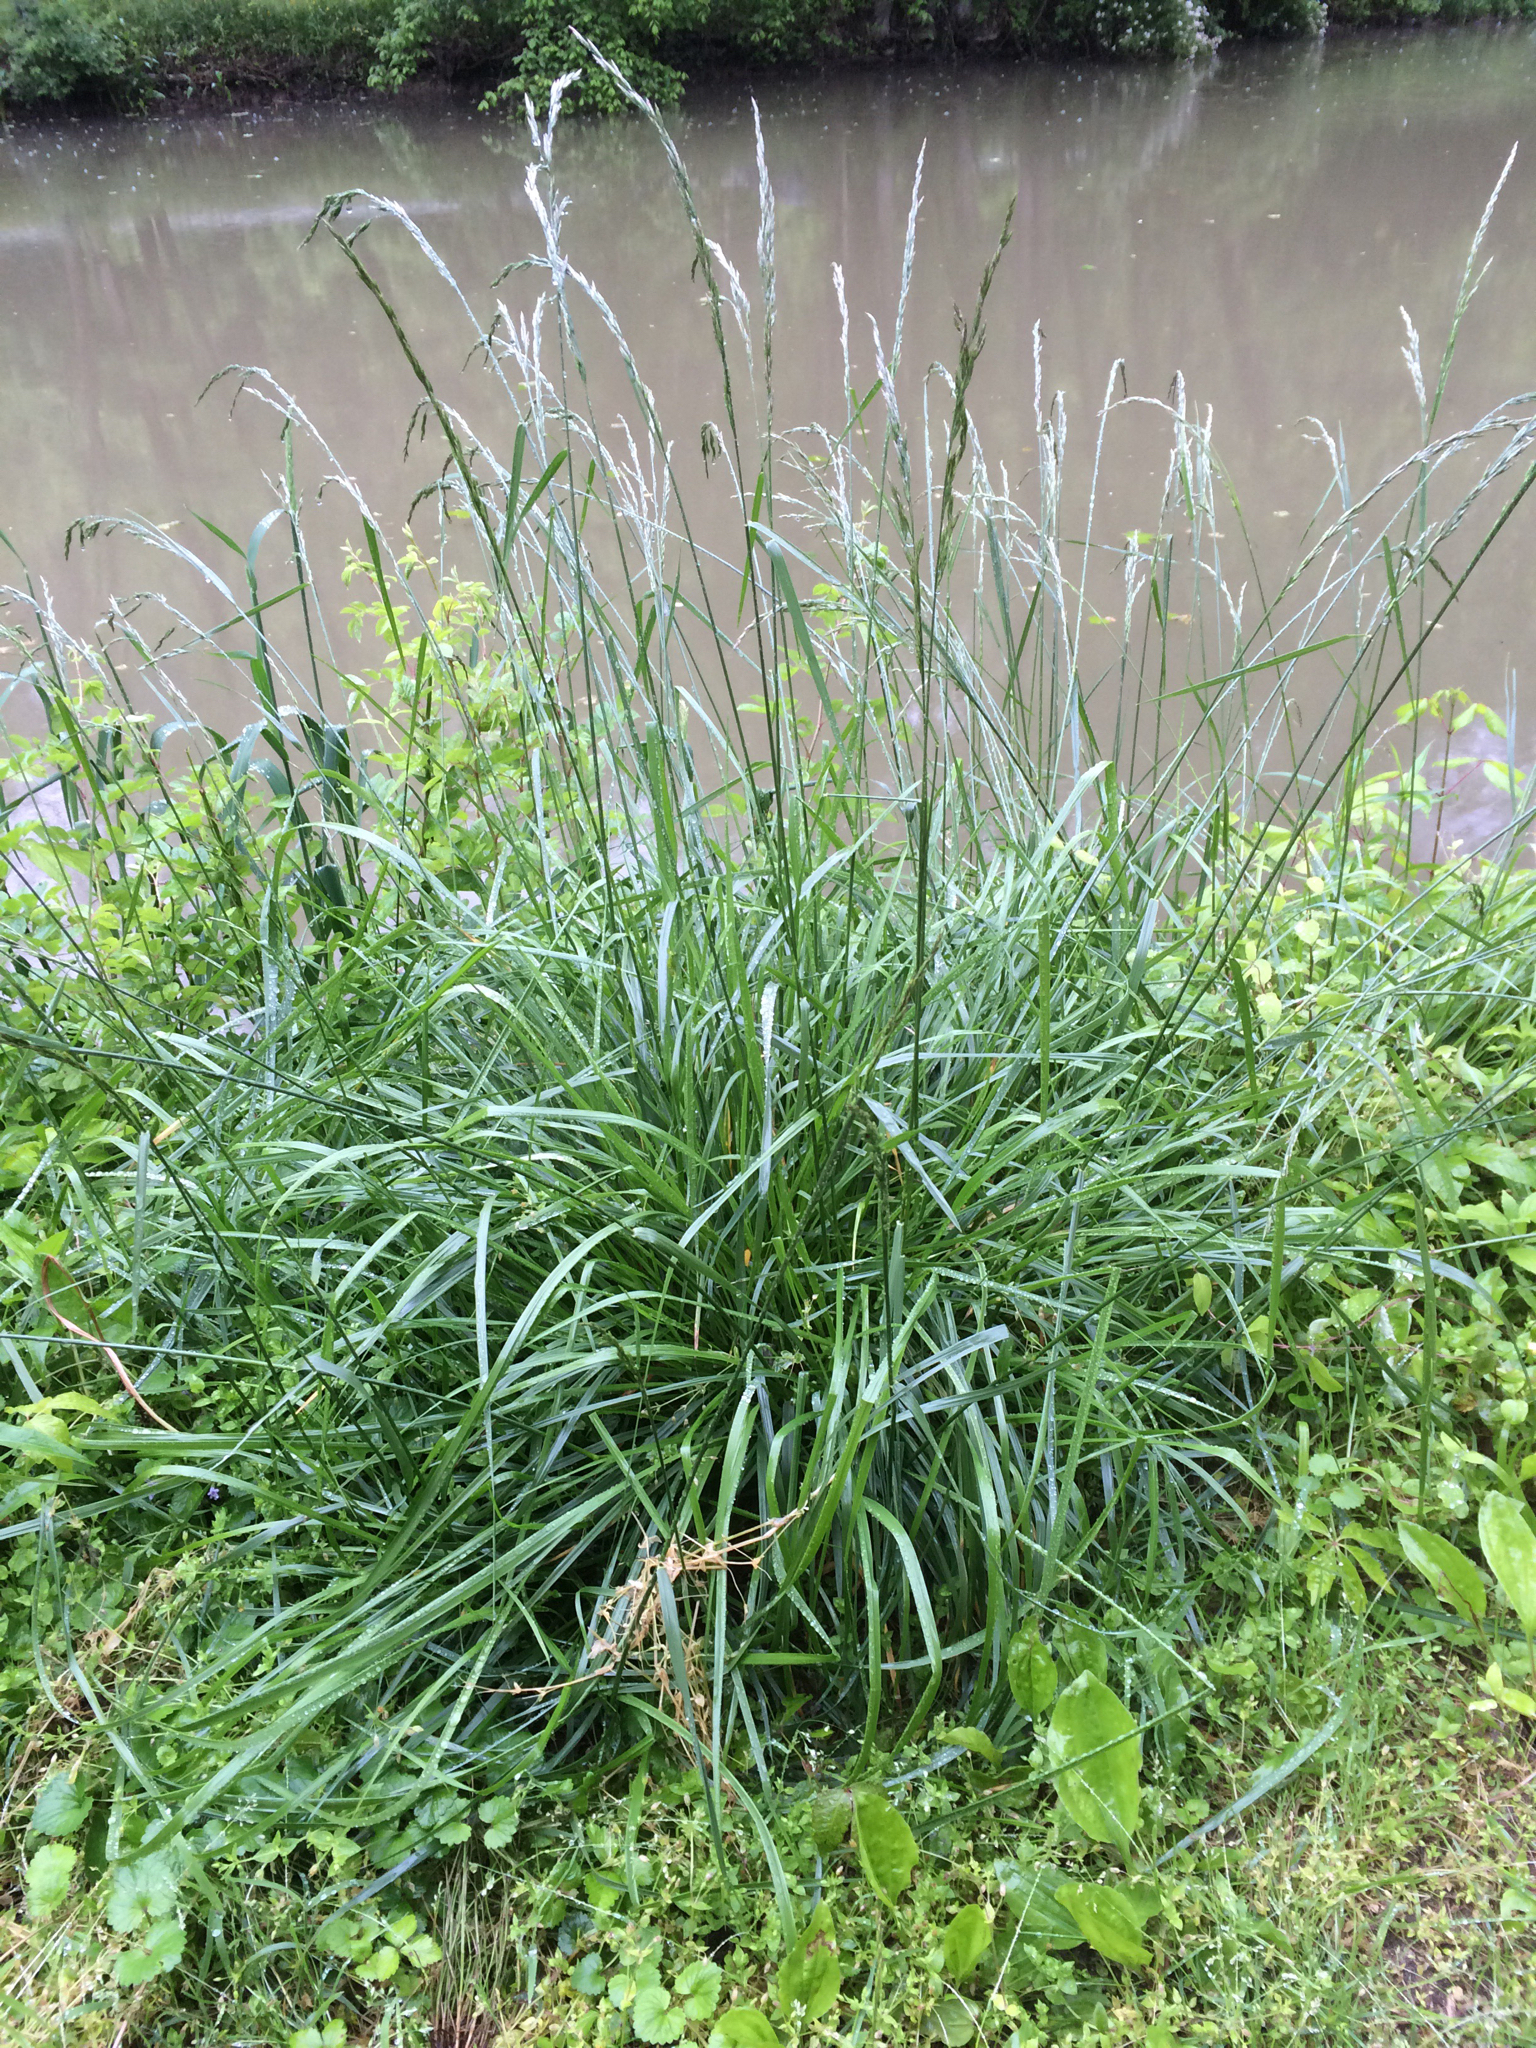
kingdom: Plantae
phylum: Tracheophyta
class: Liliopsida
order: Poales
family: Poaceae
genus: Lolium
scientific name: Lolium arundinaceum
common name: Reed fescue
